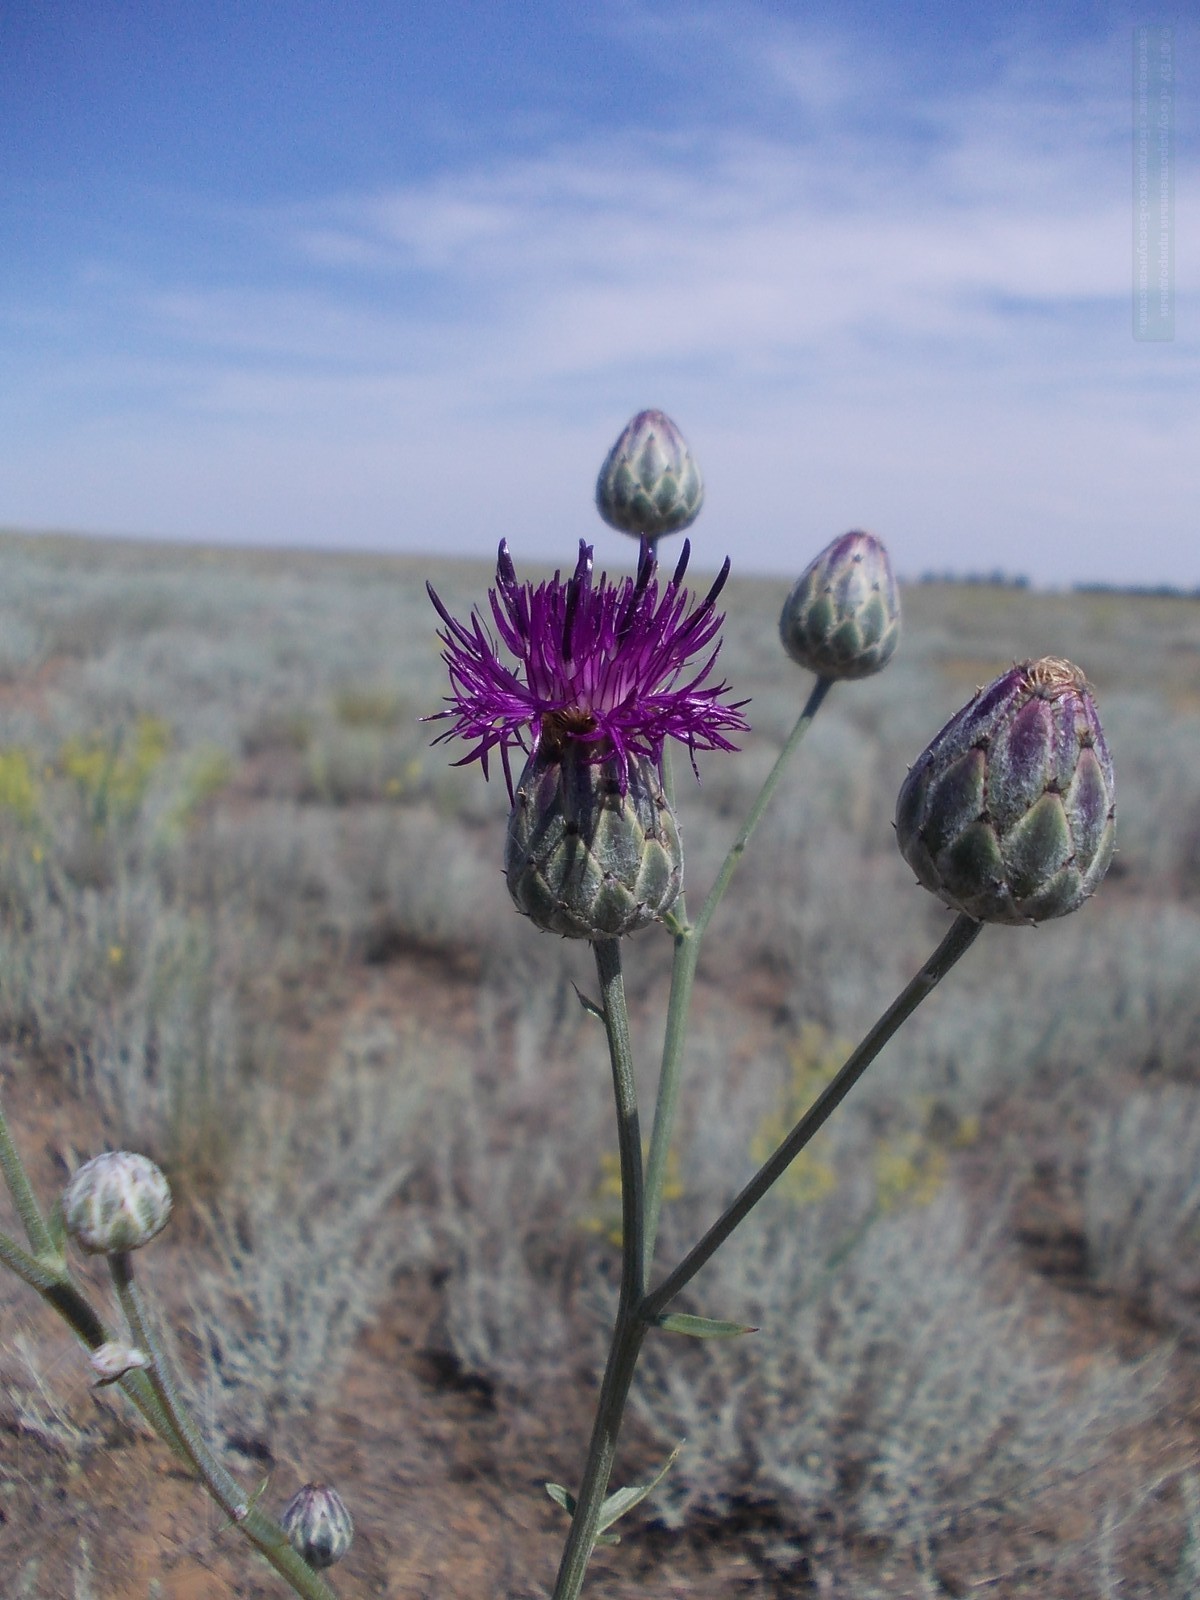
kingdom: Plantae
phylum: Tracheophyta
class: Magnoliopsida
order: Asterales
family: Asteraceae
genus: Centaurea
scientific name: Centaurea adpressa
